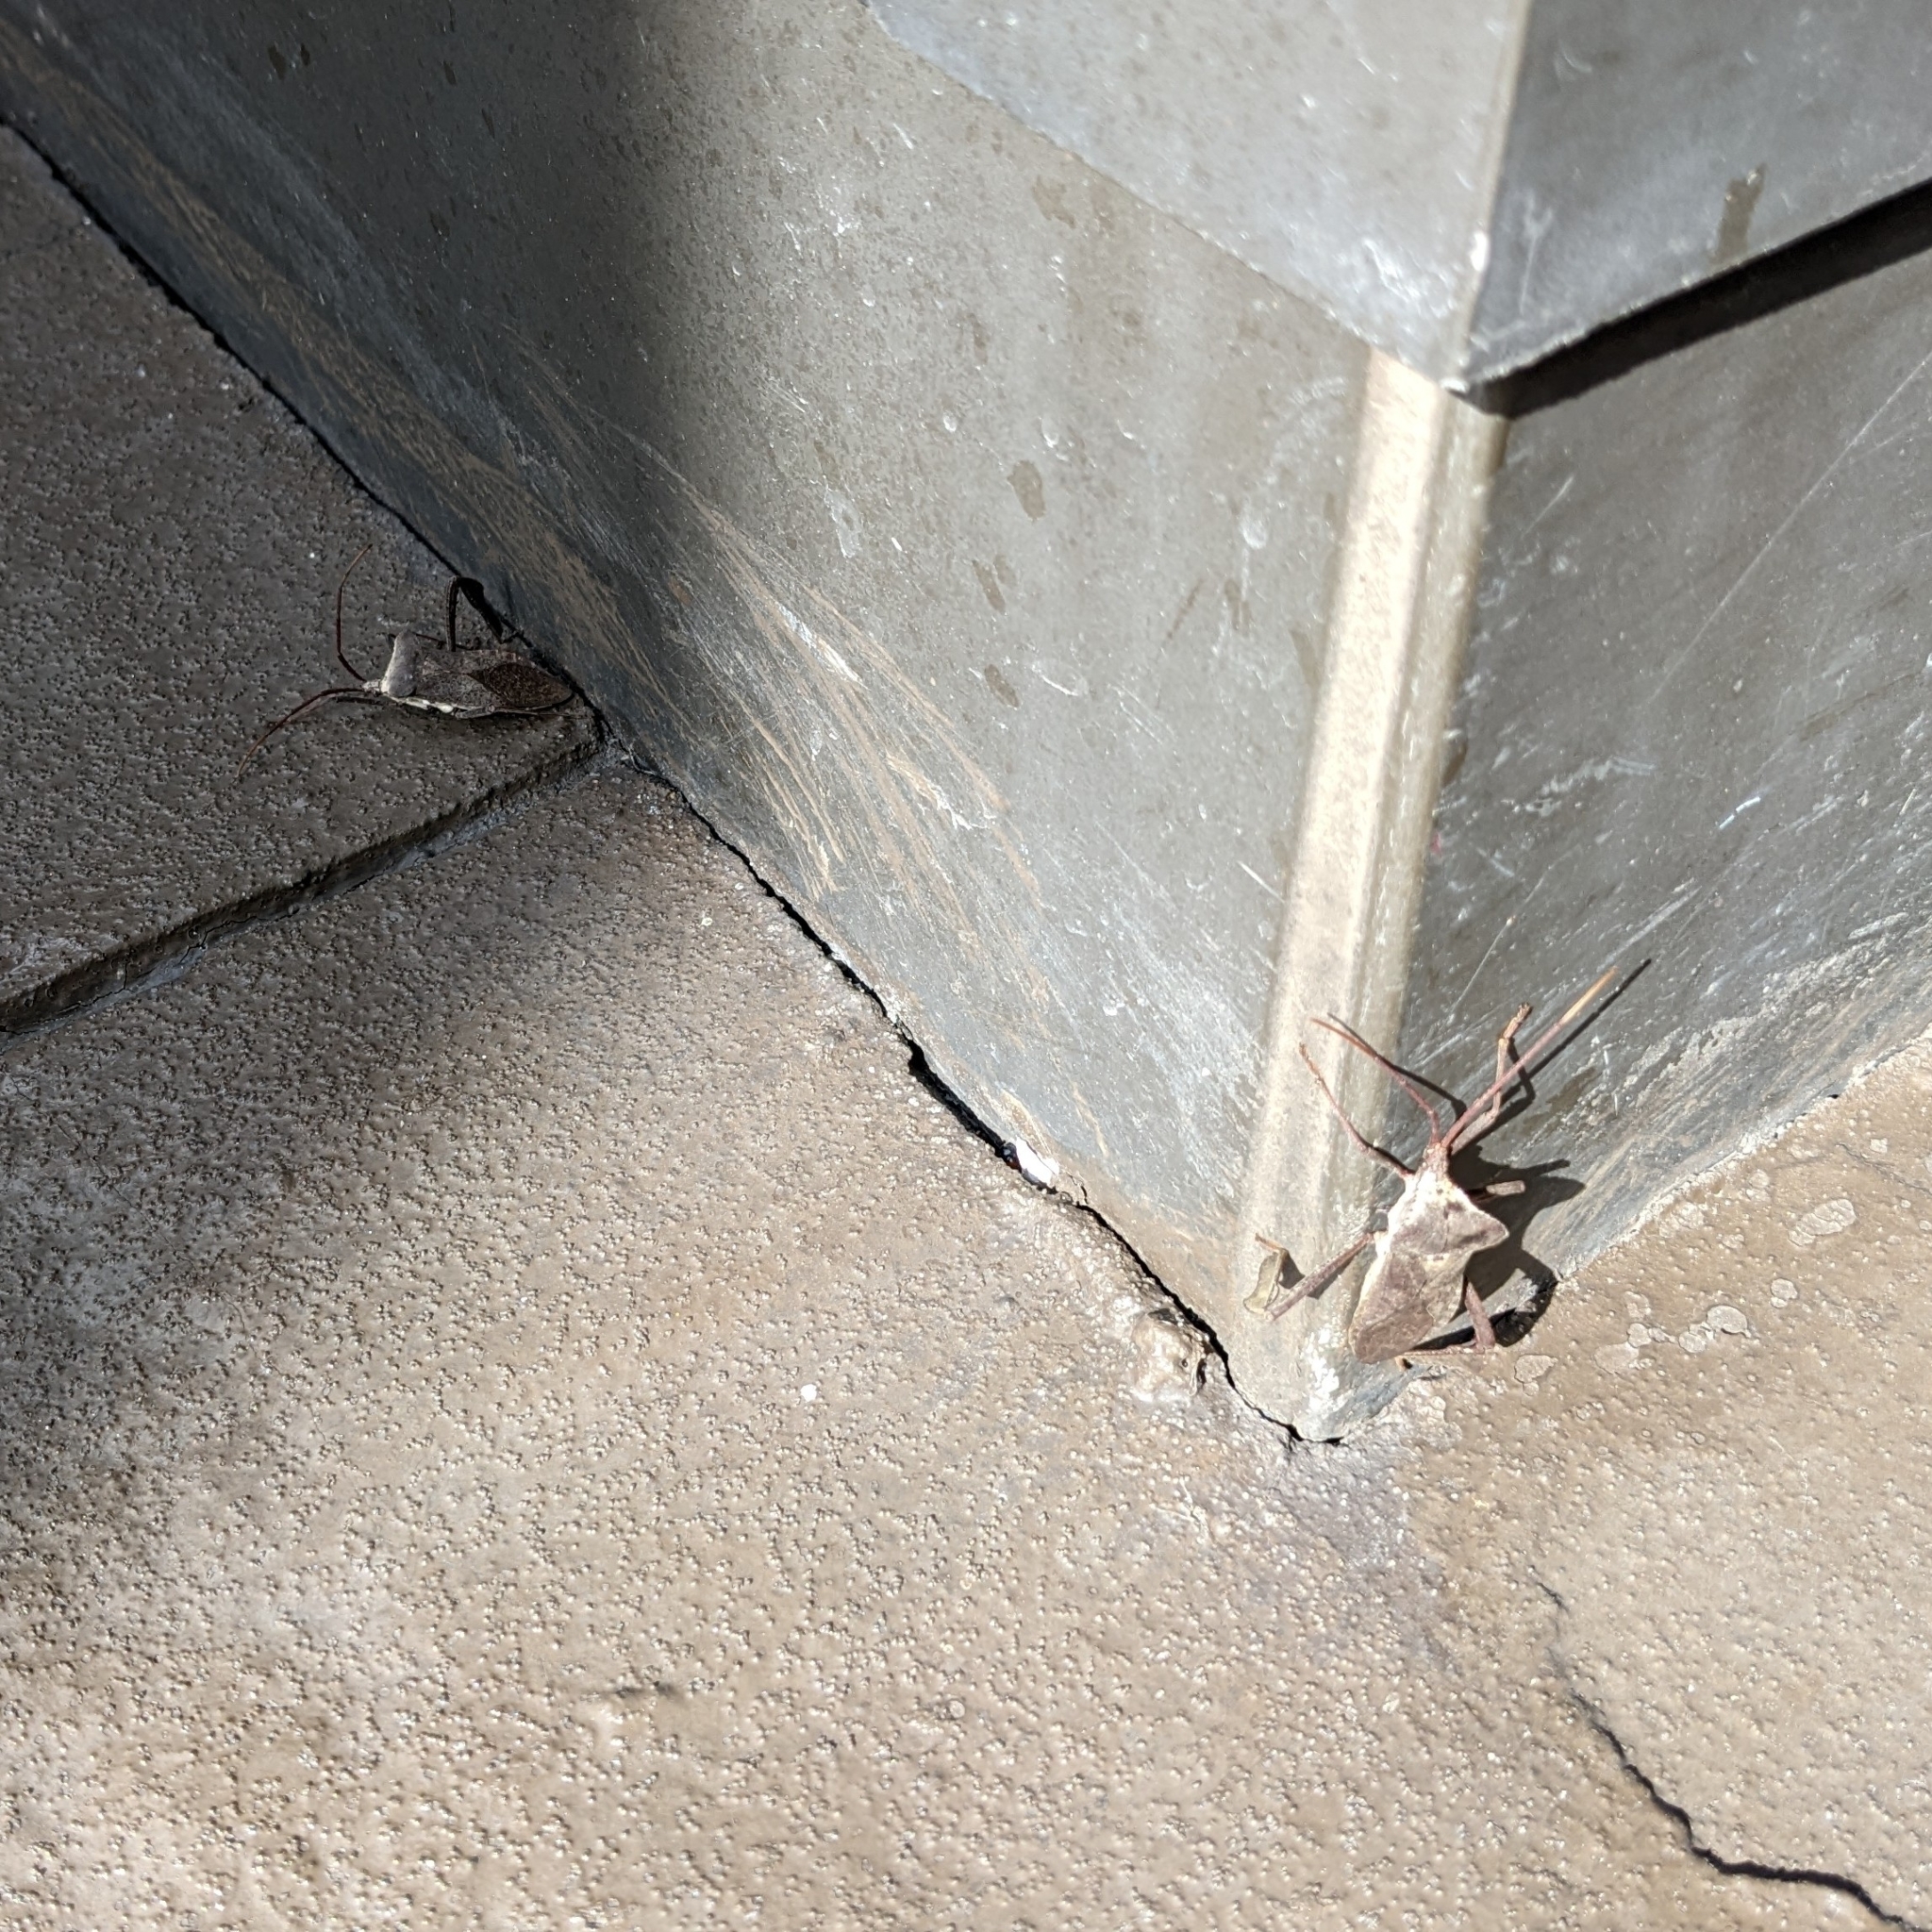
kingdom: Animalia
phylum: Arthropoda
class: Insecta
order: Hemiptera
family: Coreidae
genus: Acanthocephala
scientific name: Acanthocephala declivis
